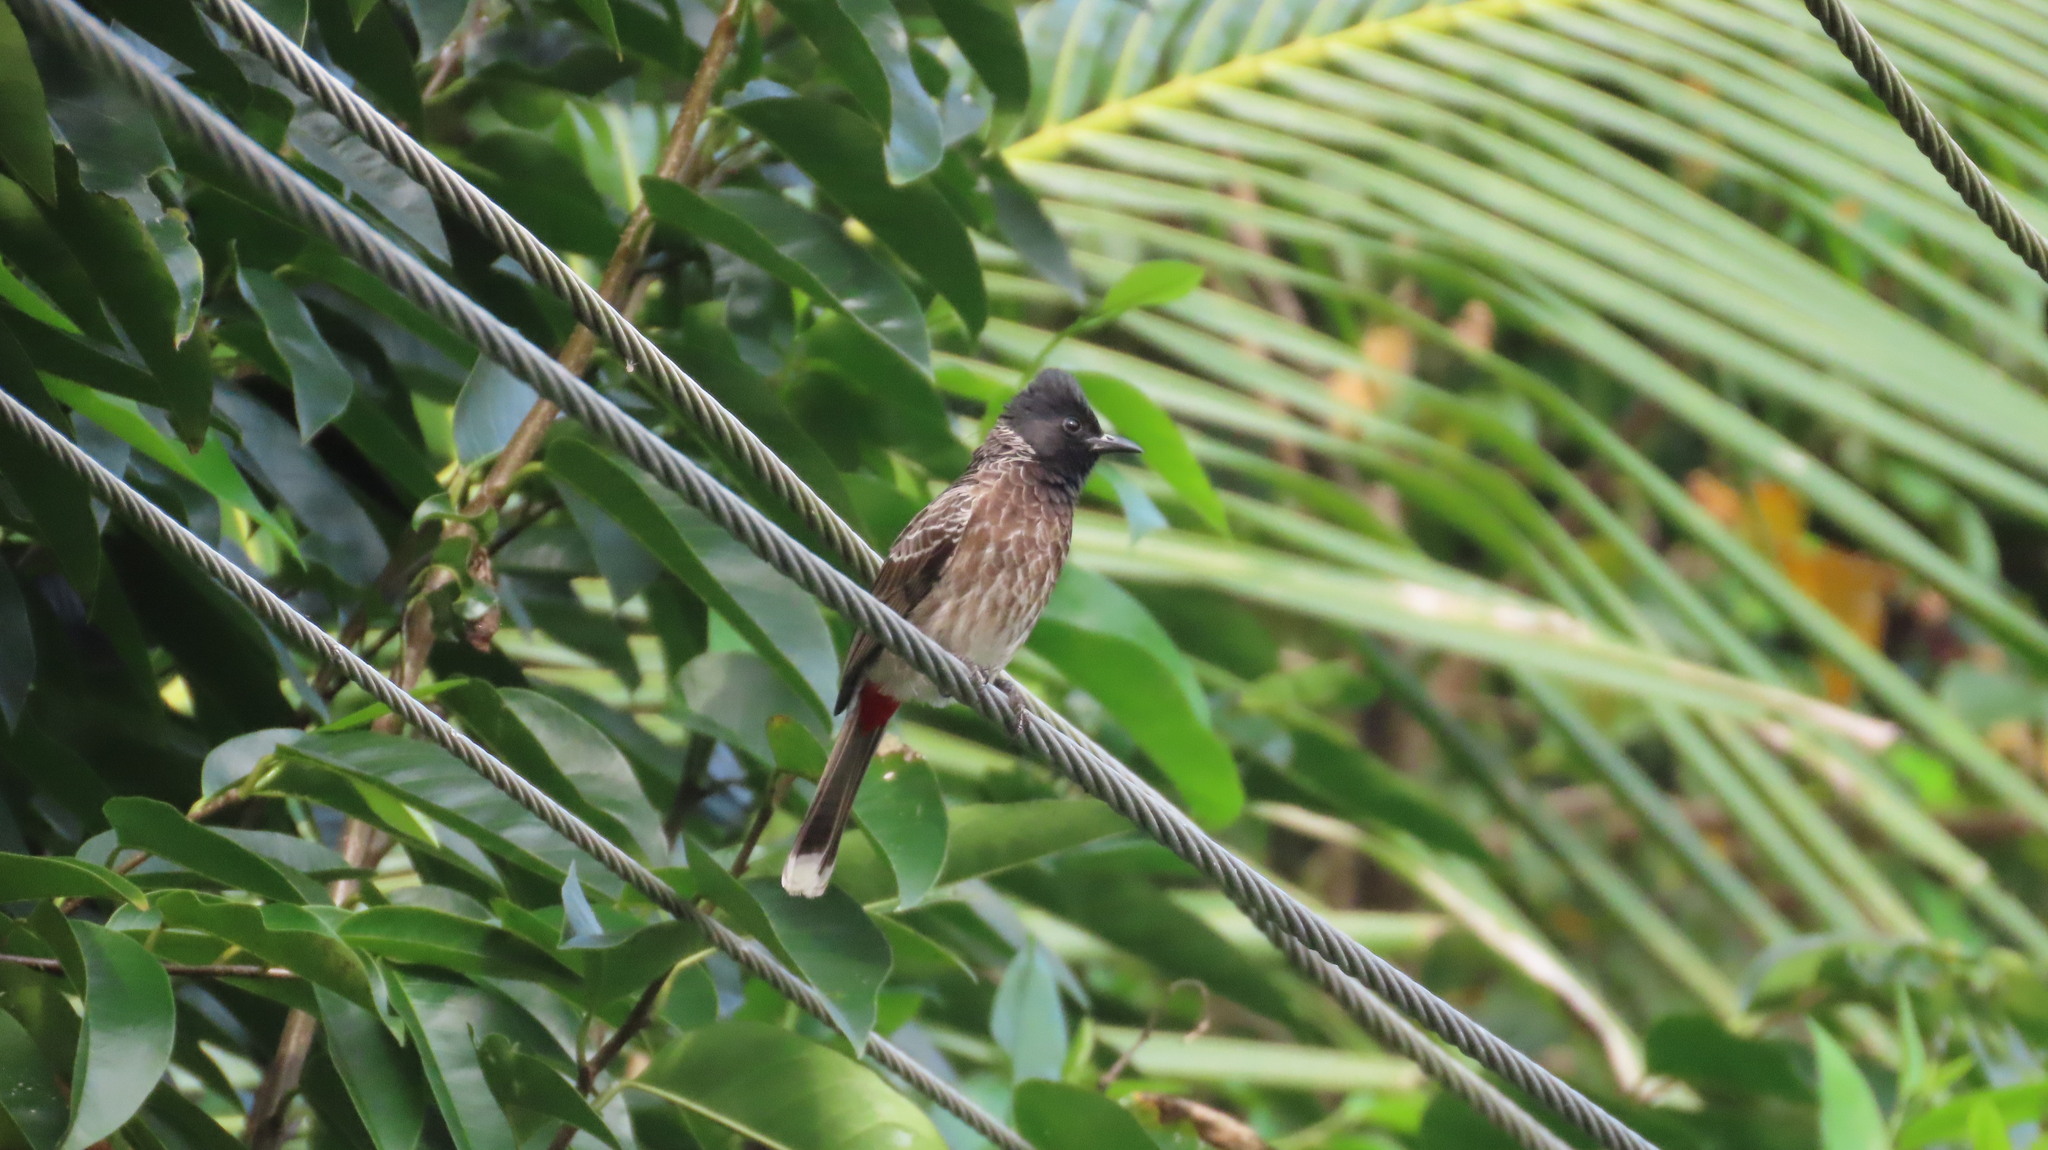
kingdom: Animalia
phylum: Chordata
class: Aves
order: Passeriformes
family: Pycnonotidae
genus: Pycnonotus
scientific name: Pycnonotus cafer
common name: Red-vented bulbul
